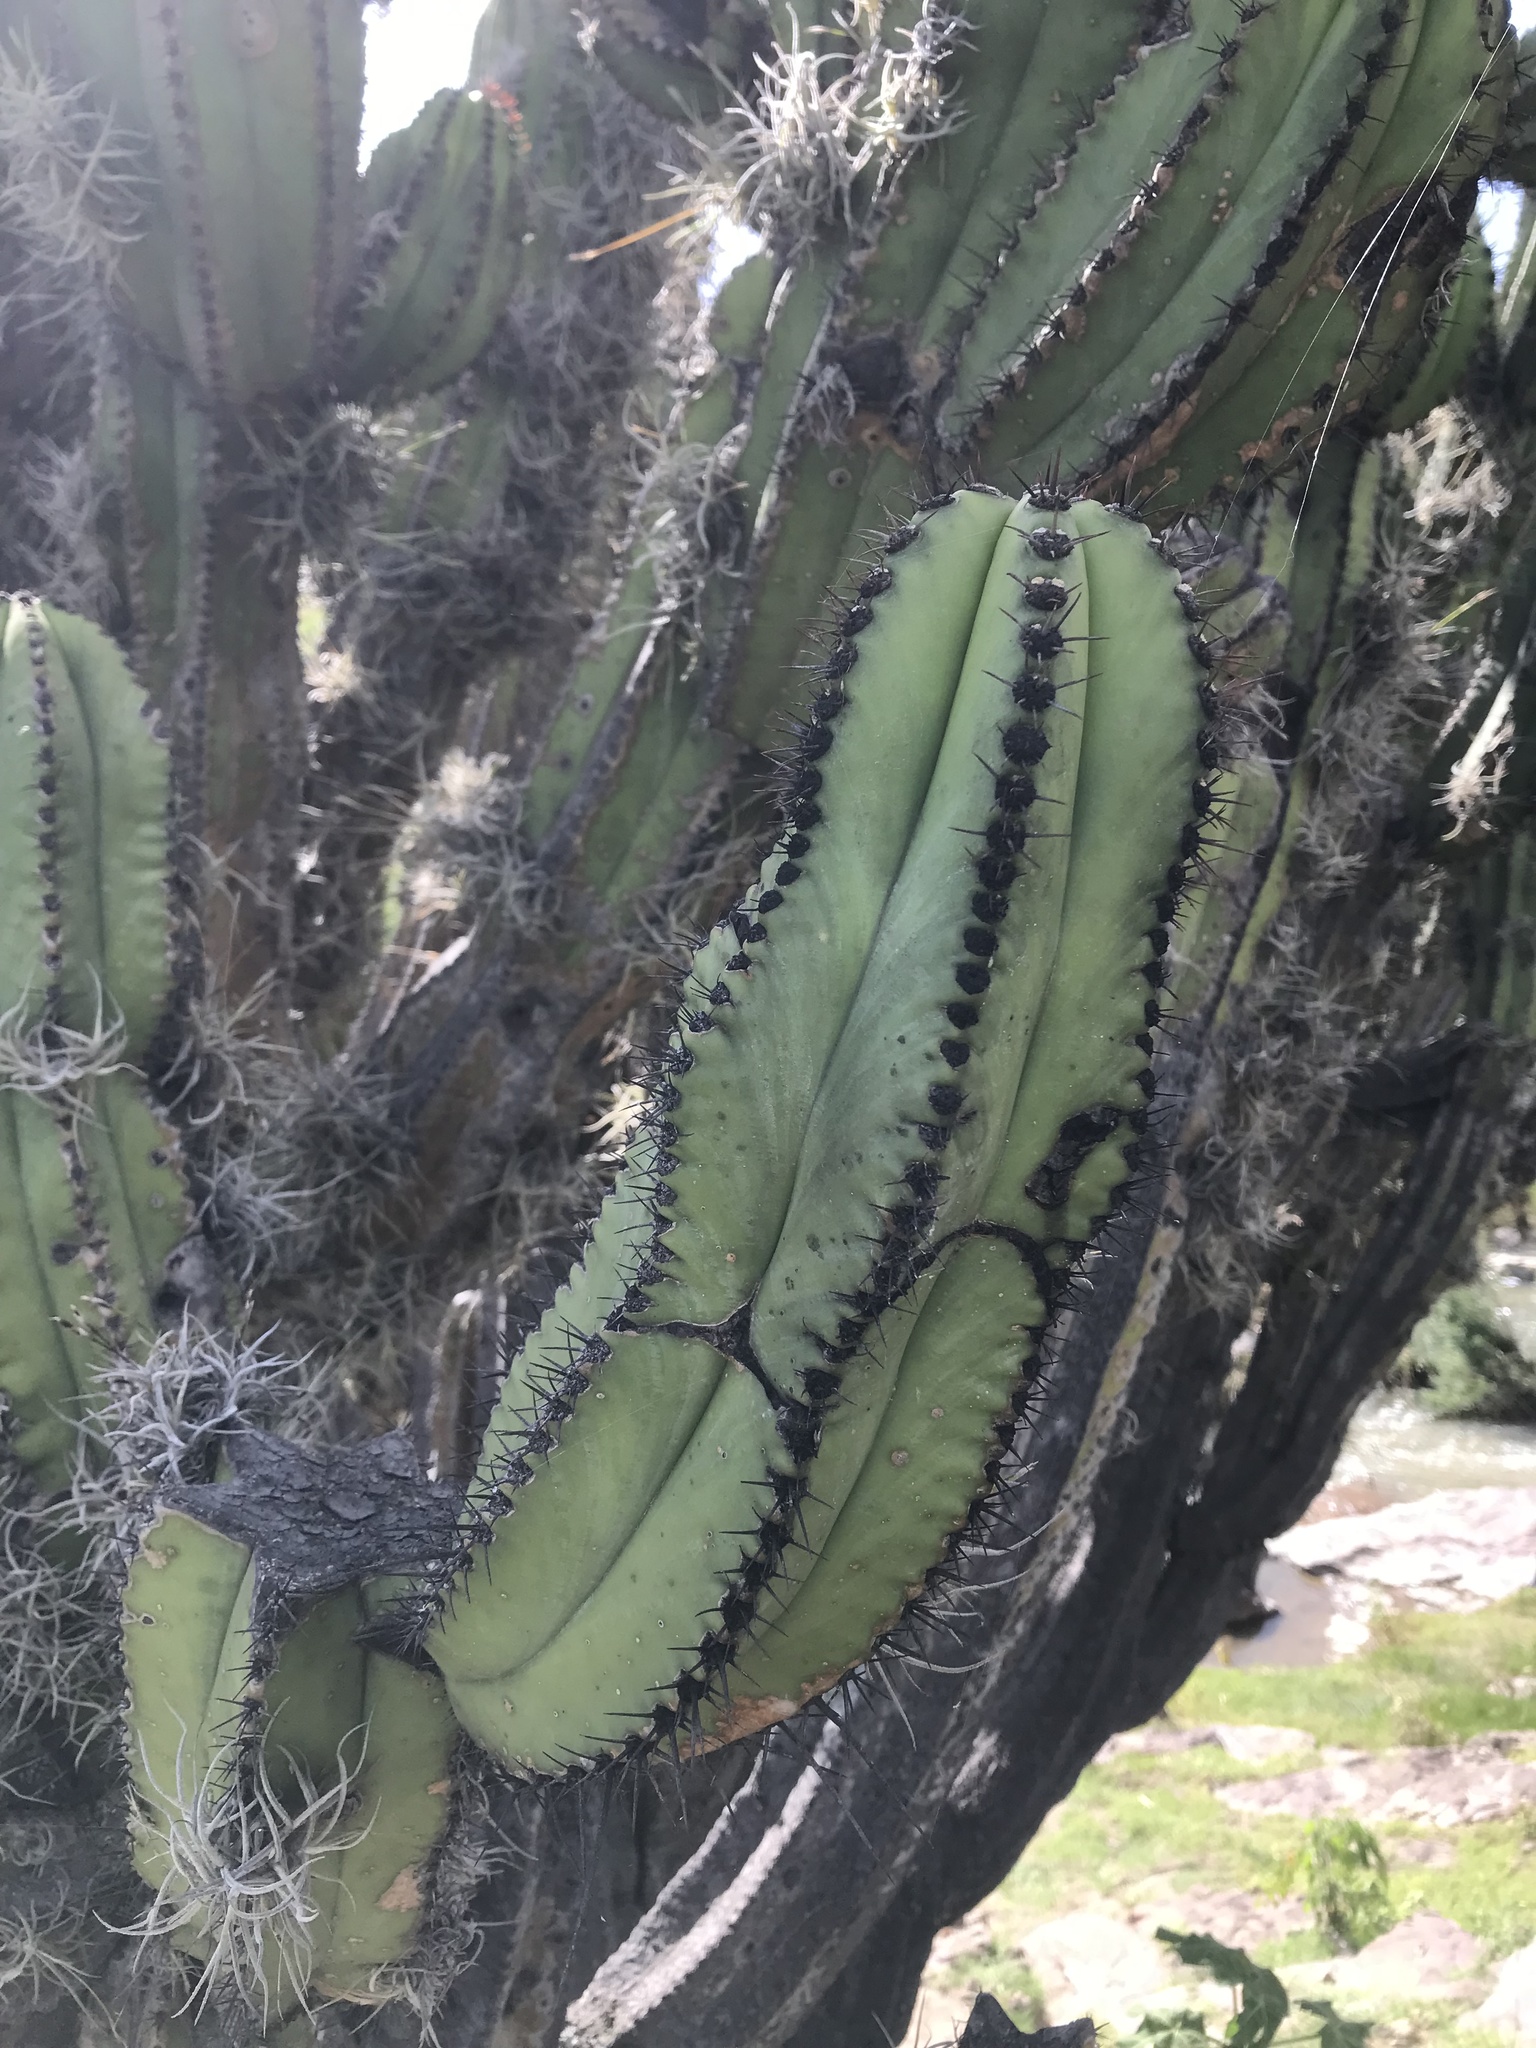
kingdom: Plantae
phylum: Tracheophyta
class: Magnoliopsida
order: Caryophyllales
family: Cactaceae
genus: Myrtillocactus
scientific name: Myrtillocactus schenckii
